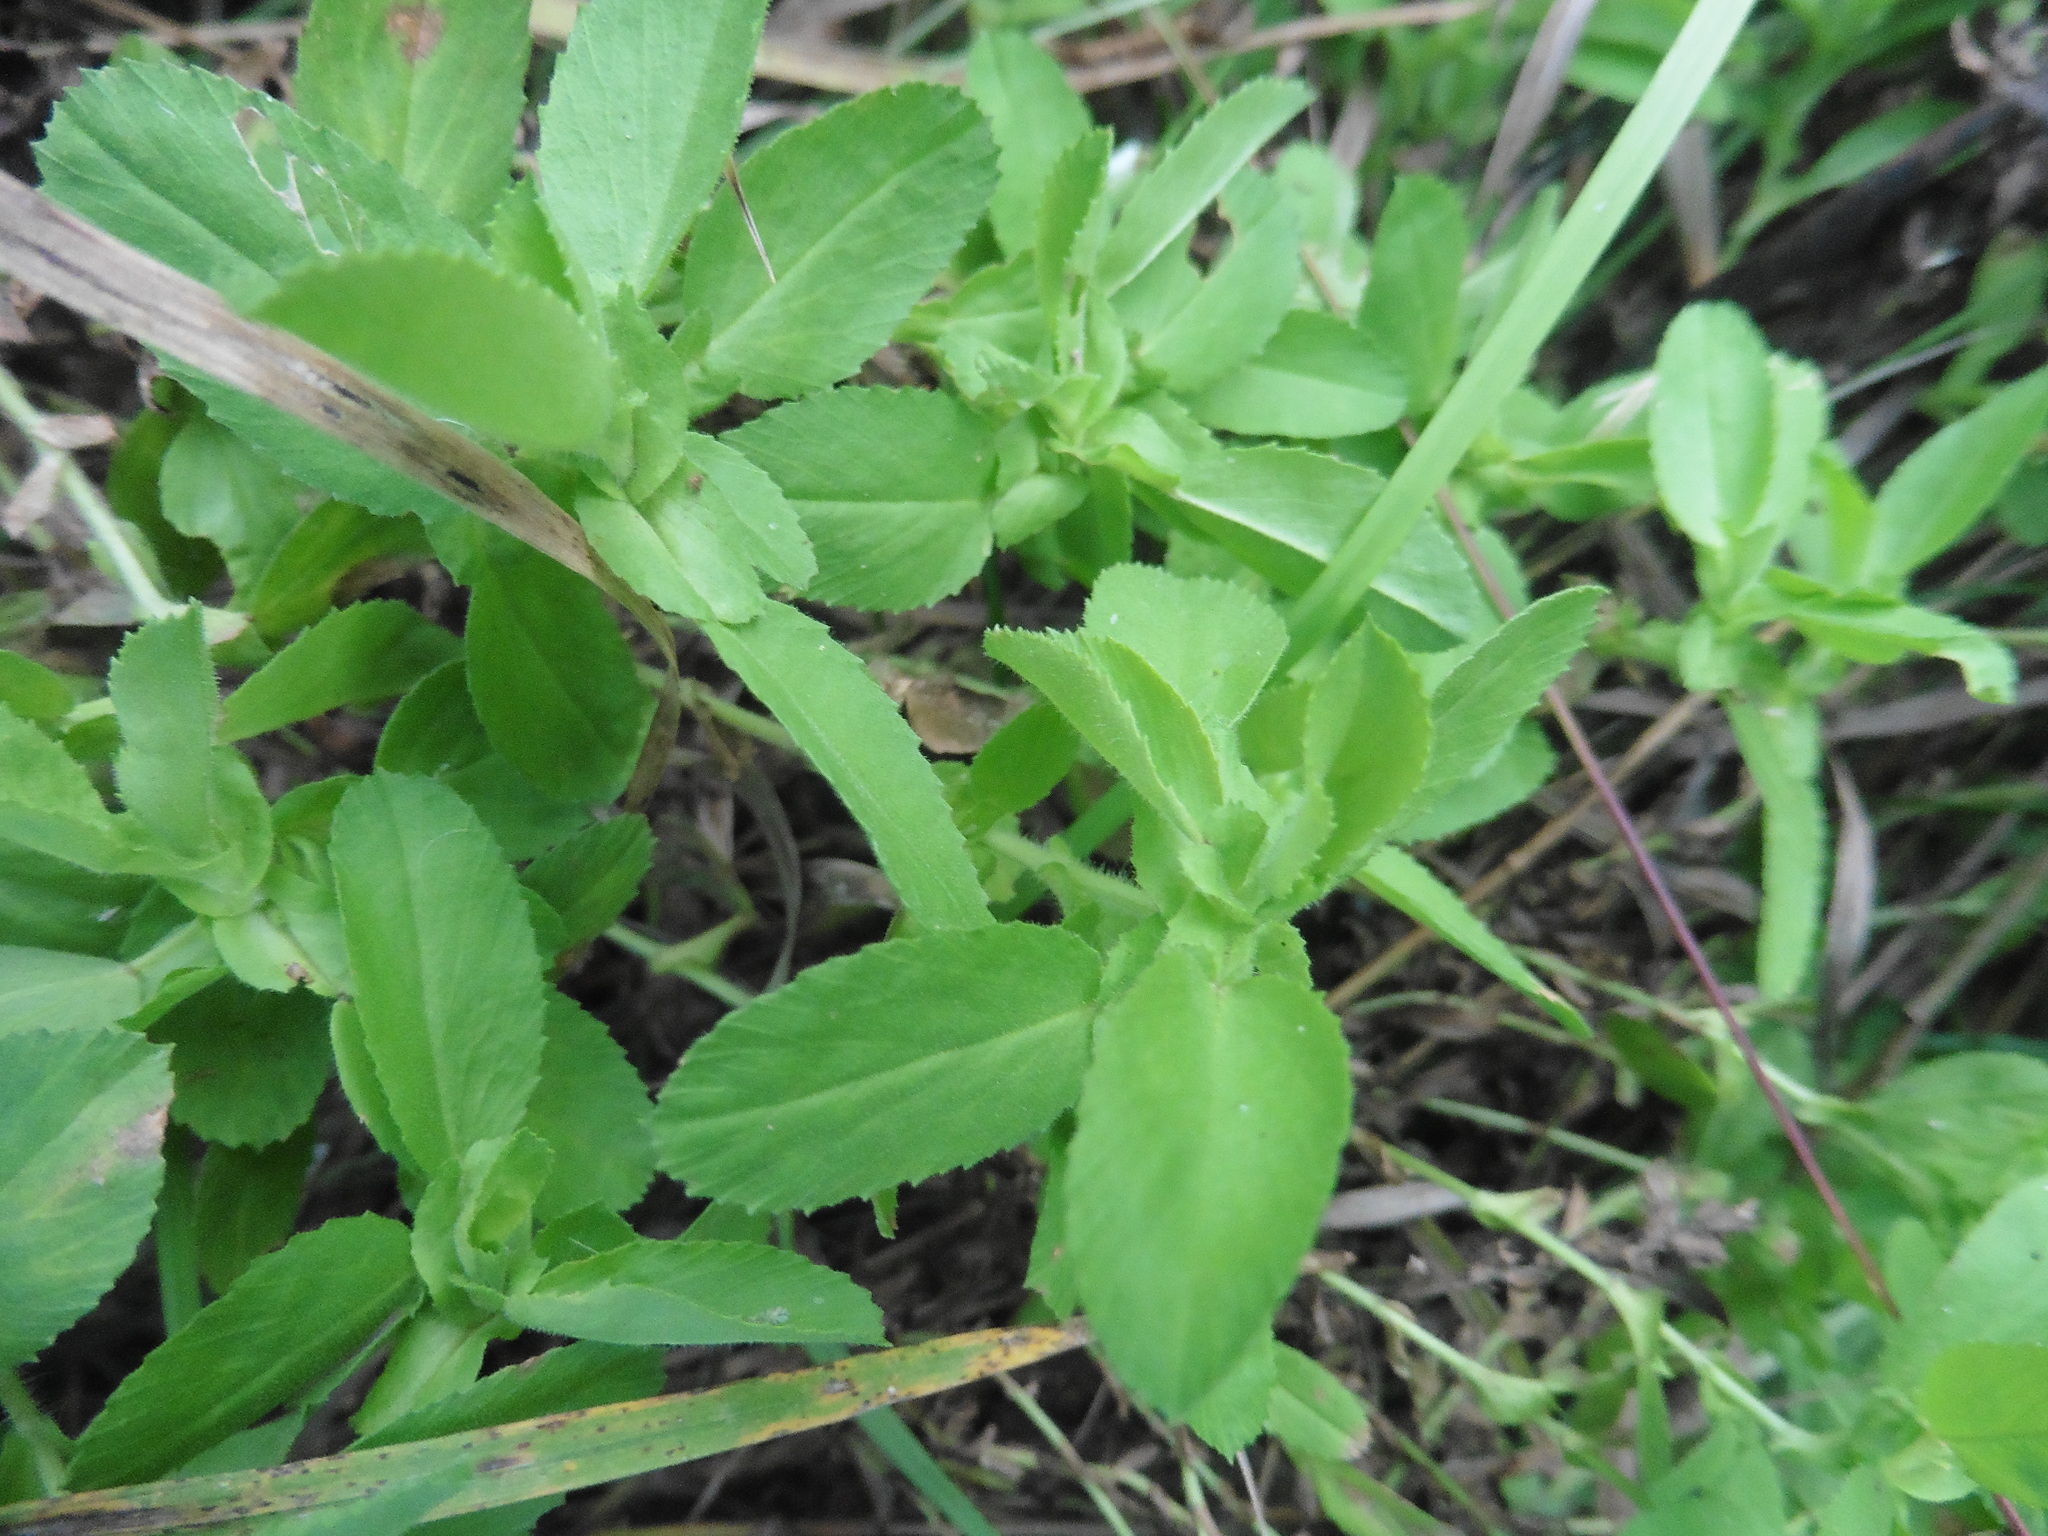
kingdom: Plantae
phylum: Tracheophyta
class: Magnoliopsida
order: Fabales
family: Fabaceae
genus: Ononis
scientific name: Ononis arvensis
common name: Field restharrow
